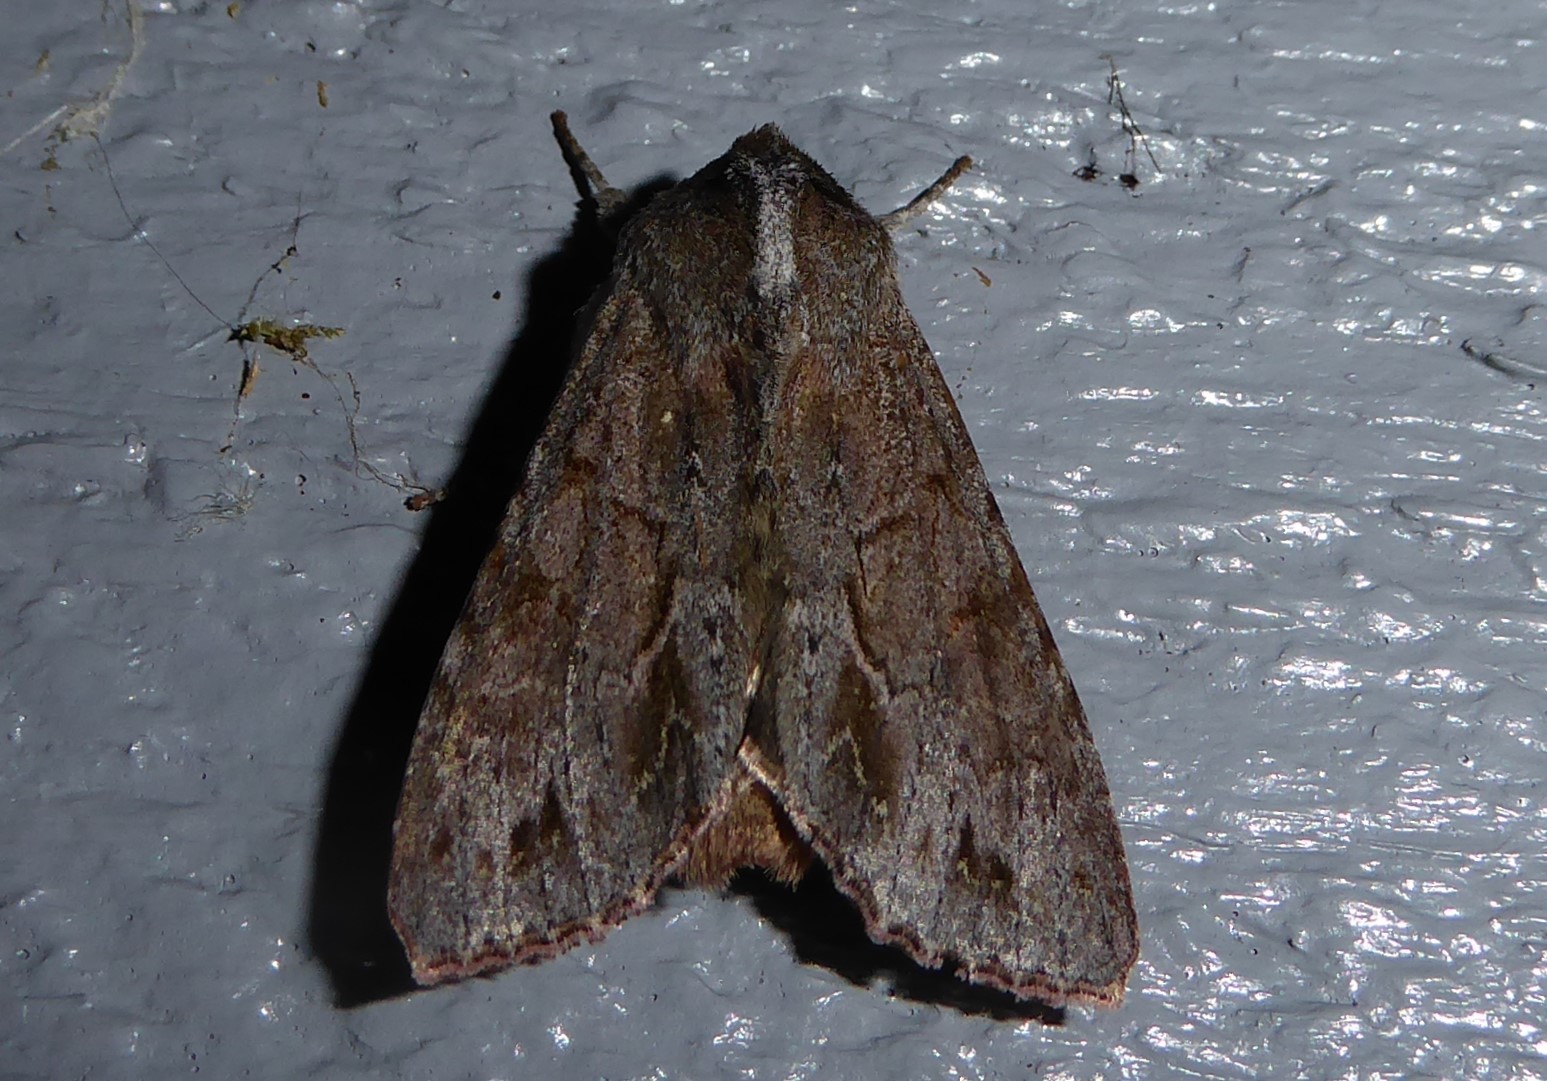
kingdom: Animalia
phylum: Arthropoda
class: Insecta
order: Lepidoptera
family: Noctuidae
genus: Ichneutica
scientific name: Ichneutica
